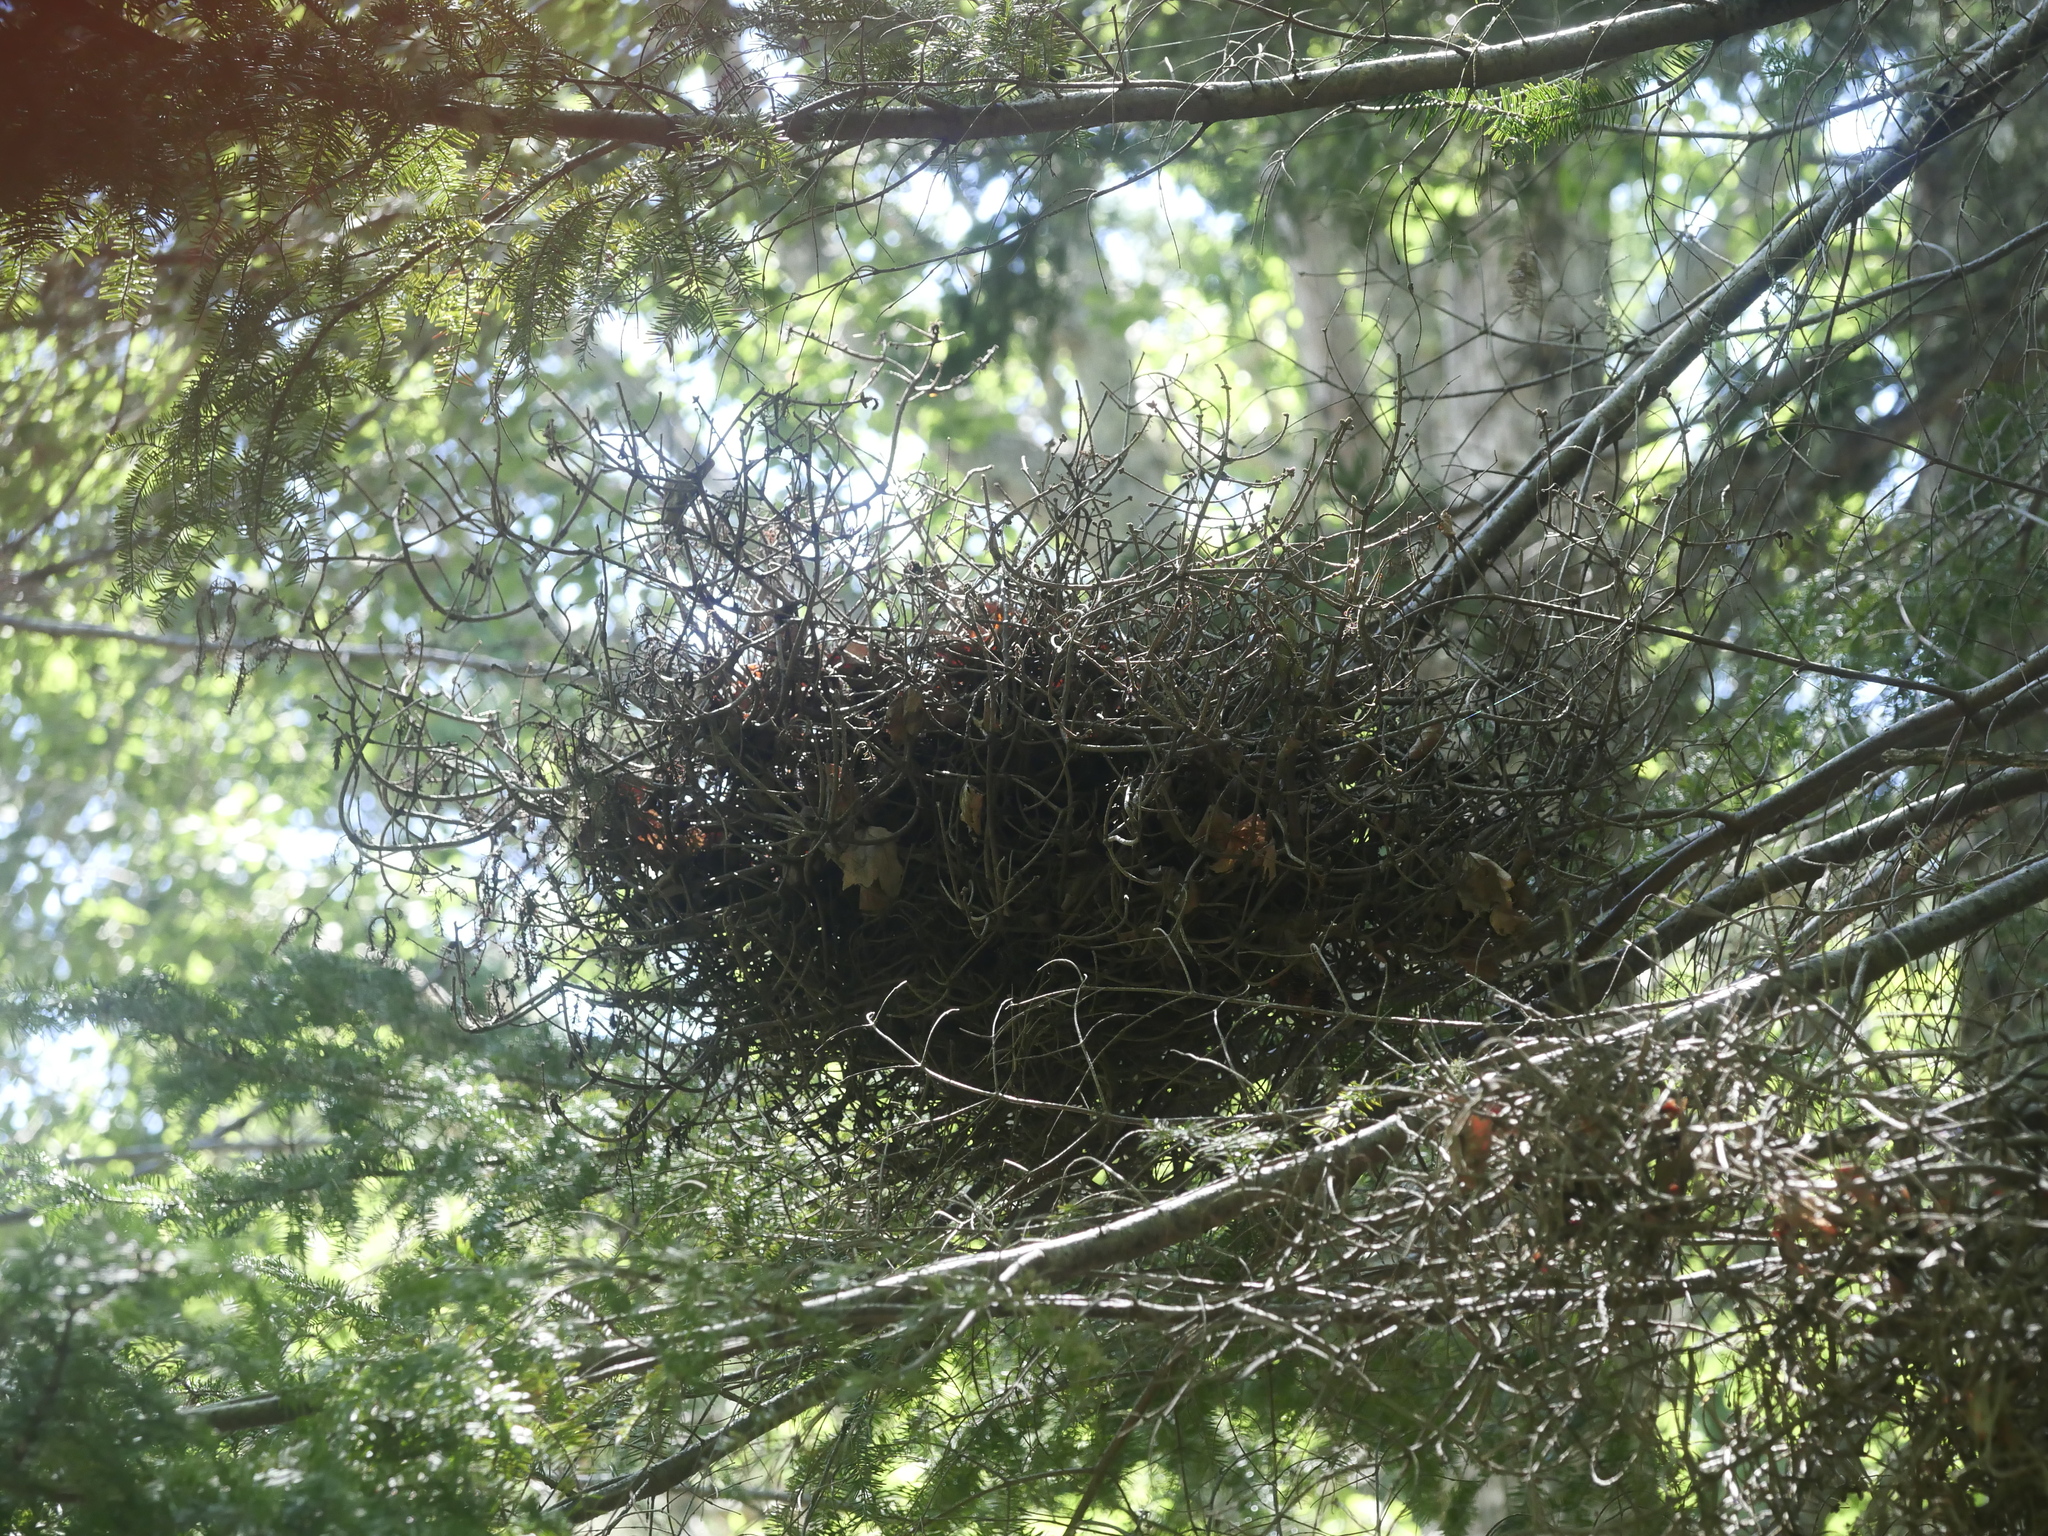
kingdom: Fungi
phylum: Basidiomycota
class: Pucciniomycetes
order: Pucciniales
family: Pucciniastraceae
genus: Melampsorella
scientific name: Melampsorella elatina
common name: Fir broom rust
